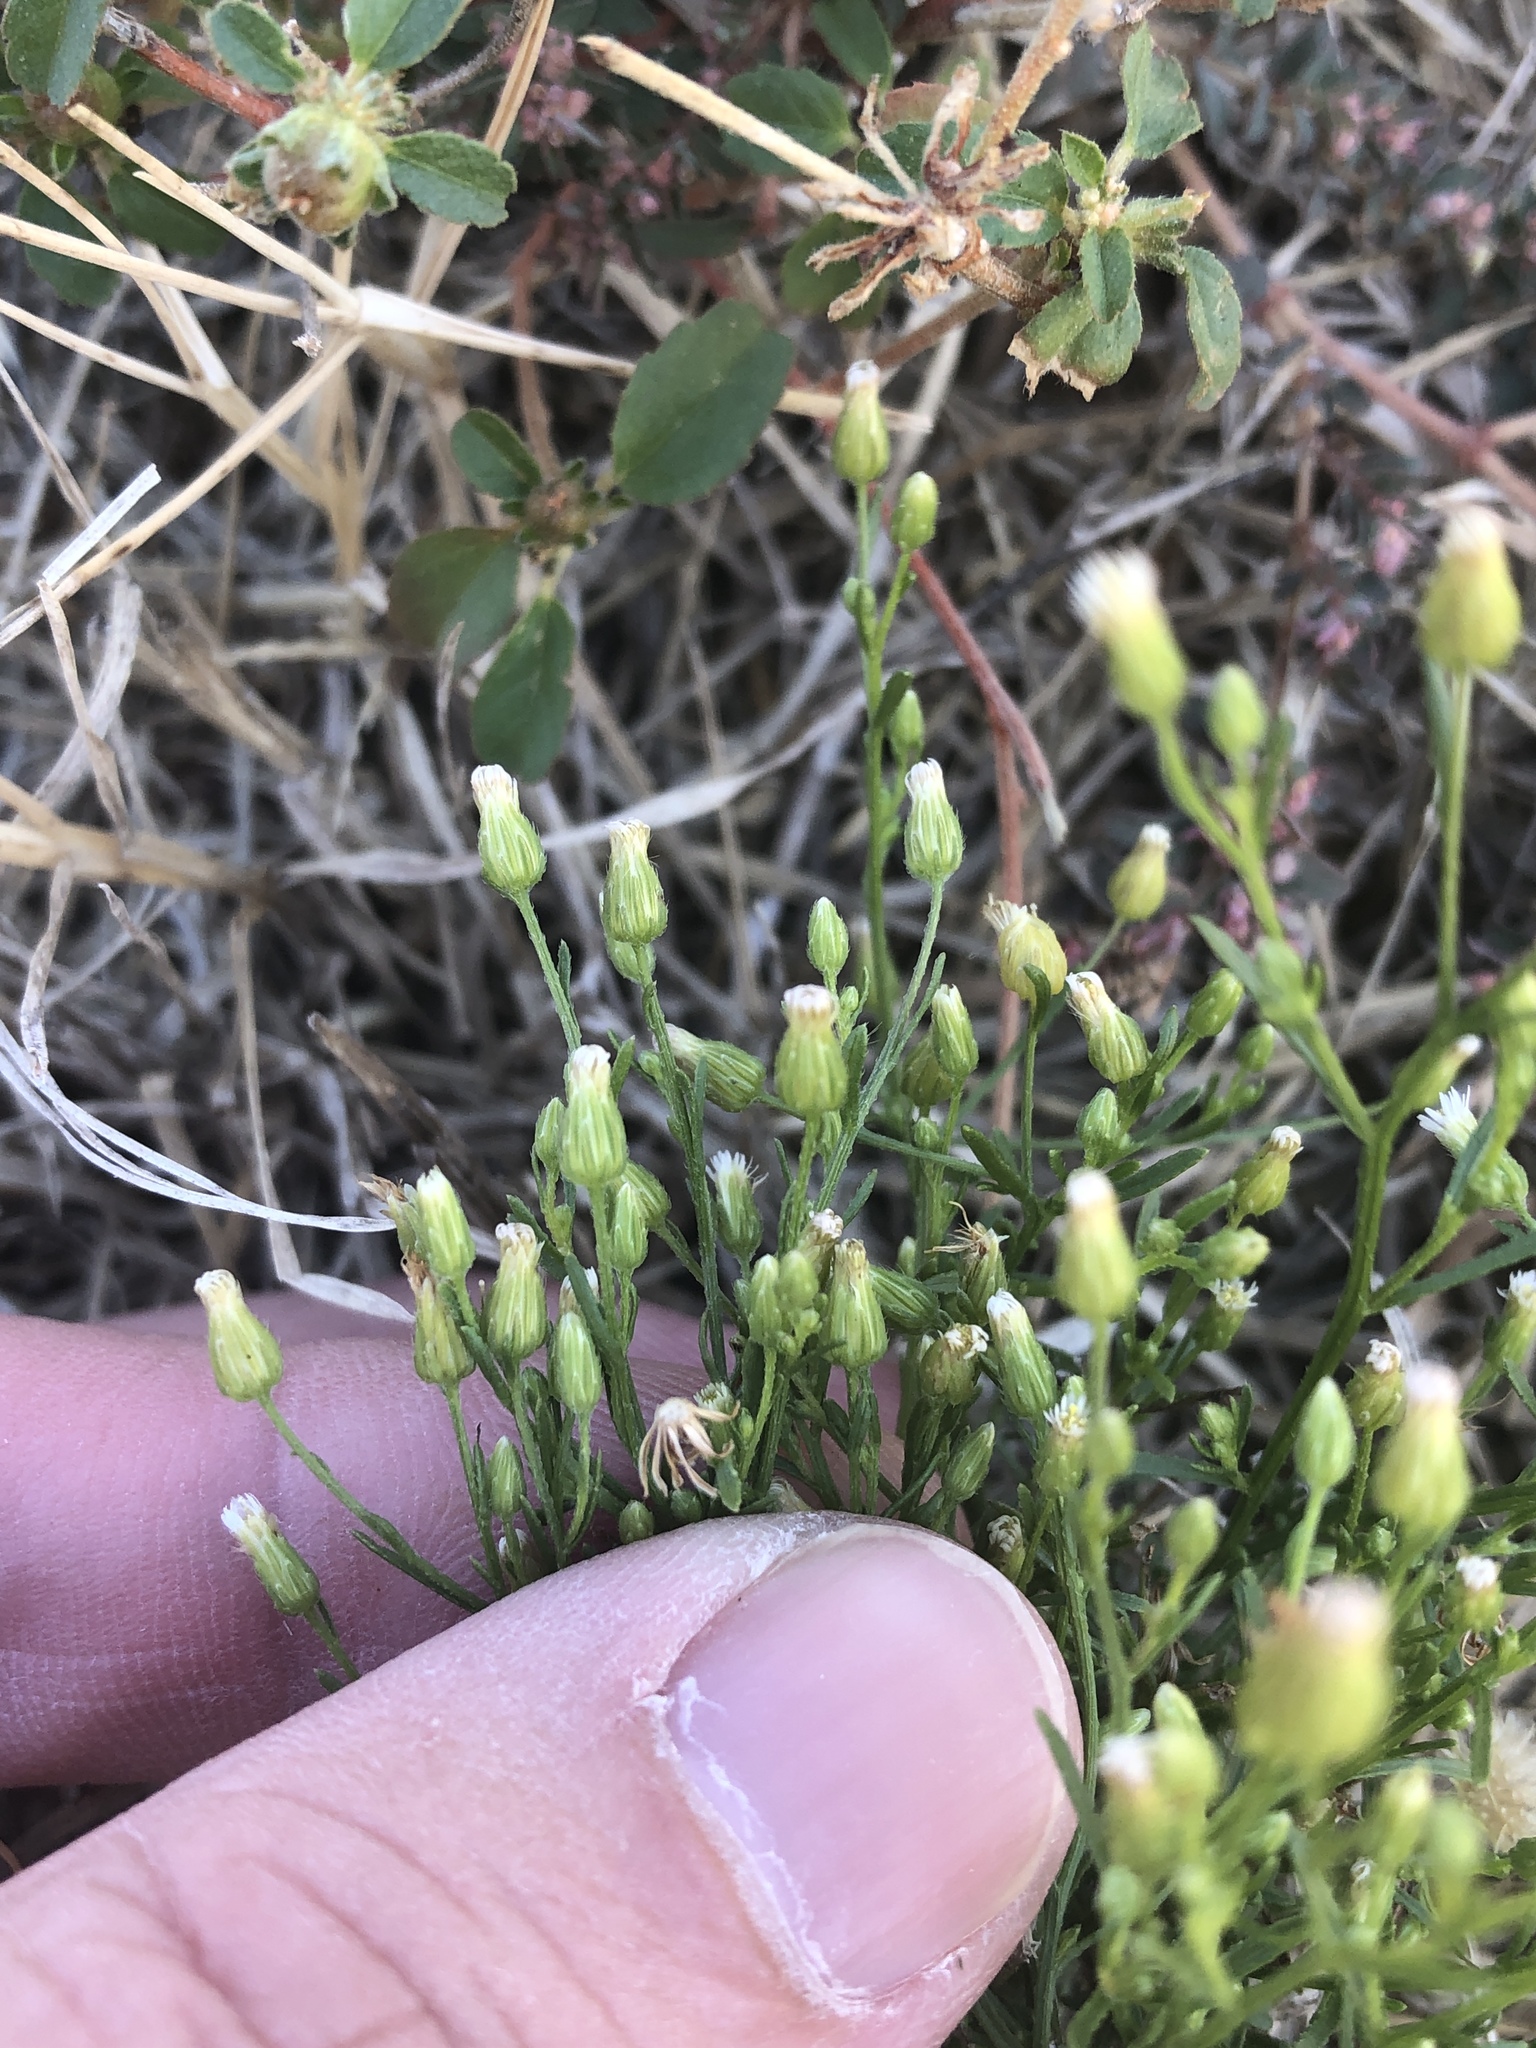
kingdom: Plantae
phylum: Tracheophyta
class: Magnoliopsida
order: Asterales
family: Asteraceae
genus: Erigeron
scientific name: Erigeron canadensis
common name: Canadian fleabane
